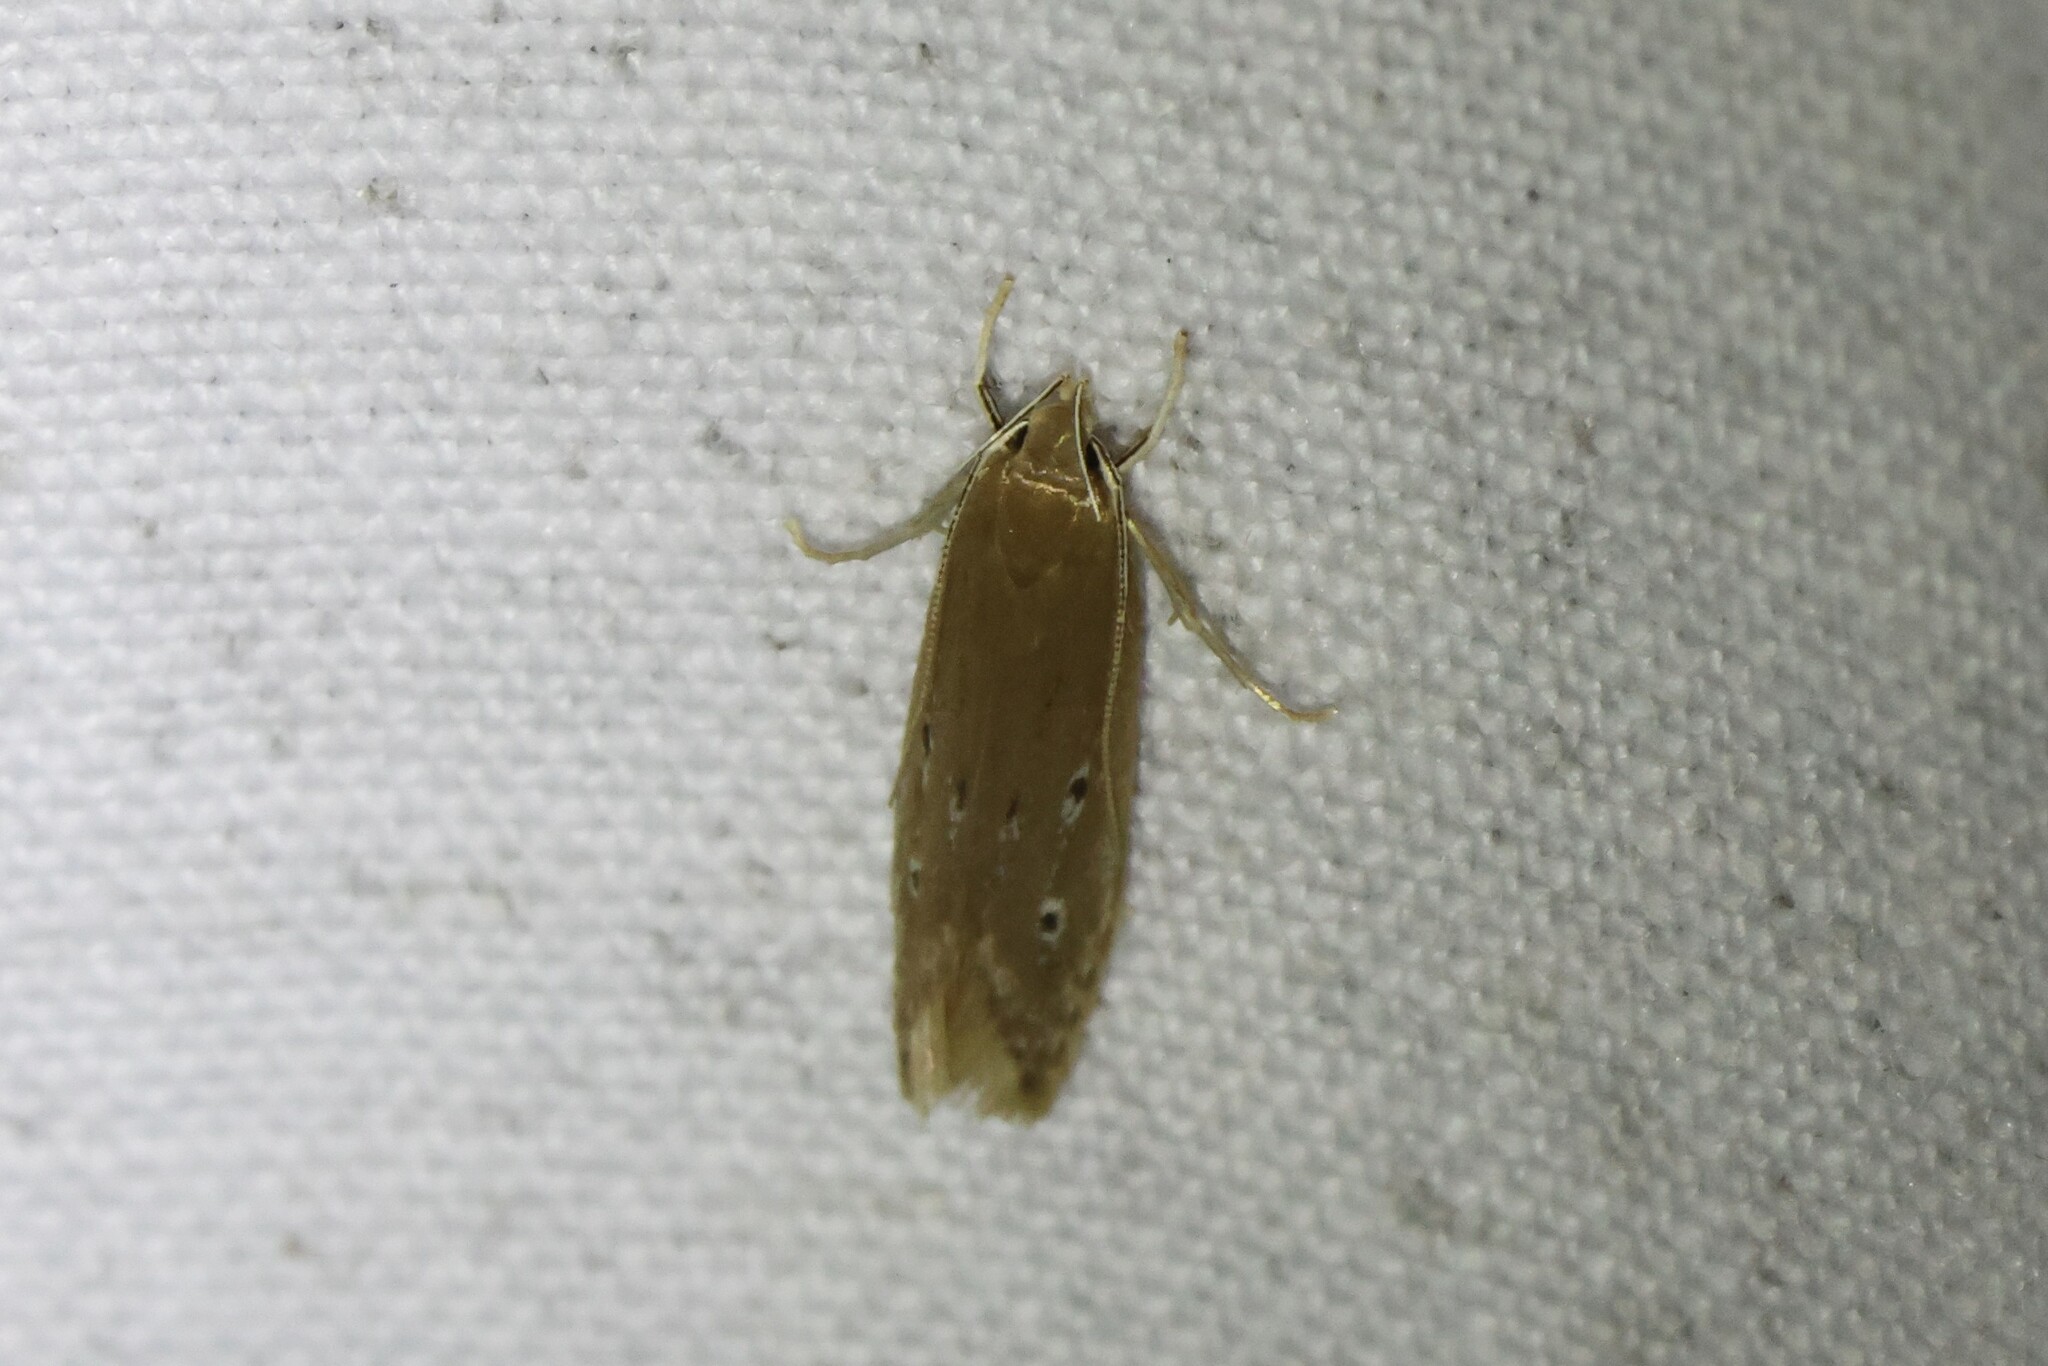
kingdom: Animalia
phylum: Arthropoda
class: Insecta
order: Lepidoptera
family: Cosmopterigidae
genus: Limnaecia
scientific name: Limnaecia phragmitella
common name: Bulrush cosmet
